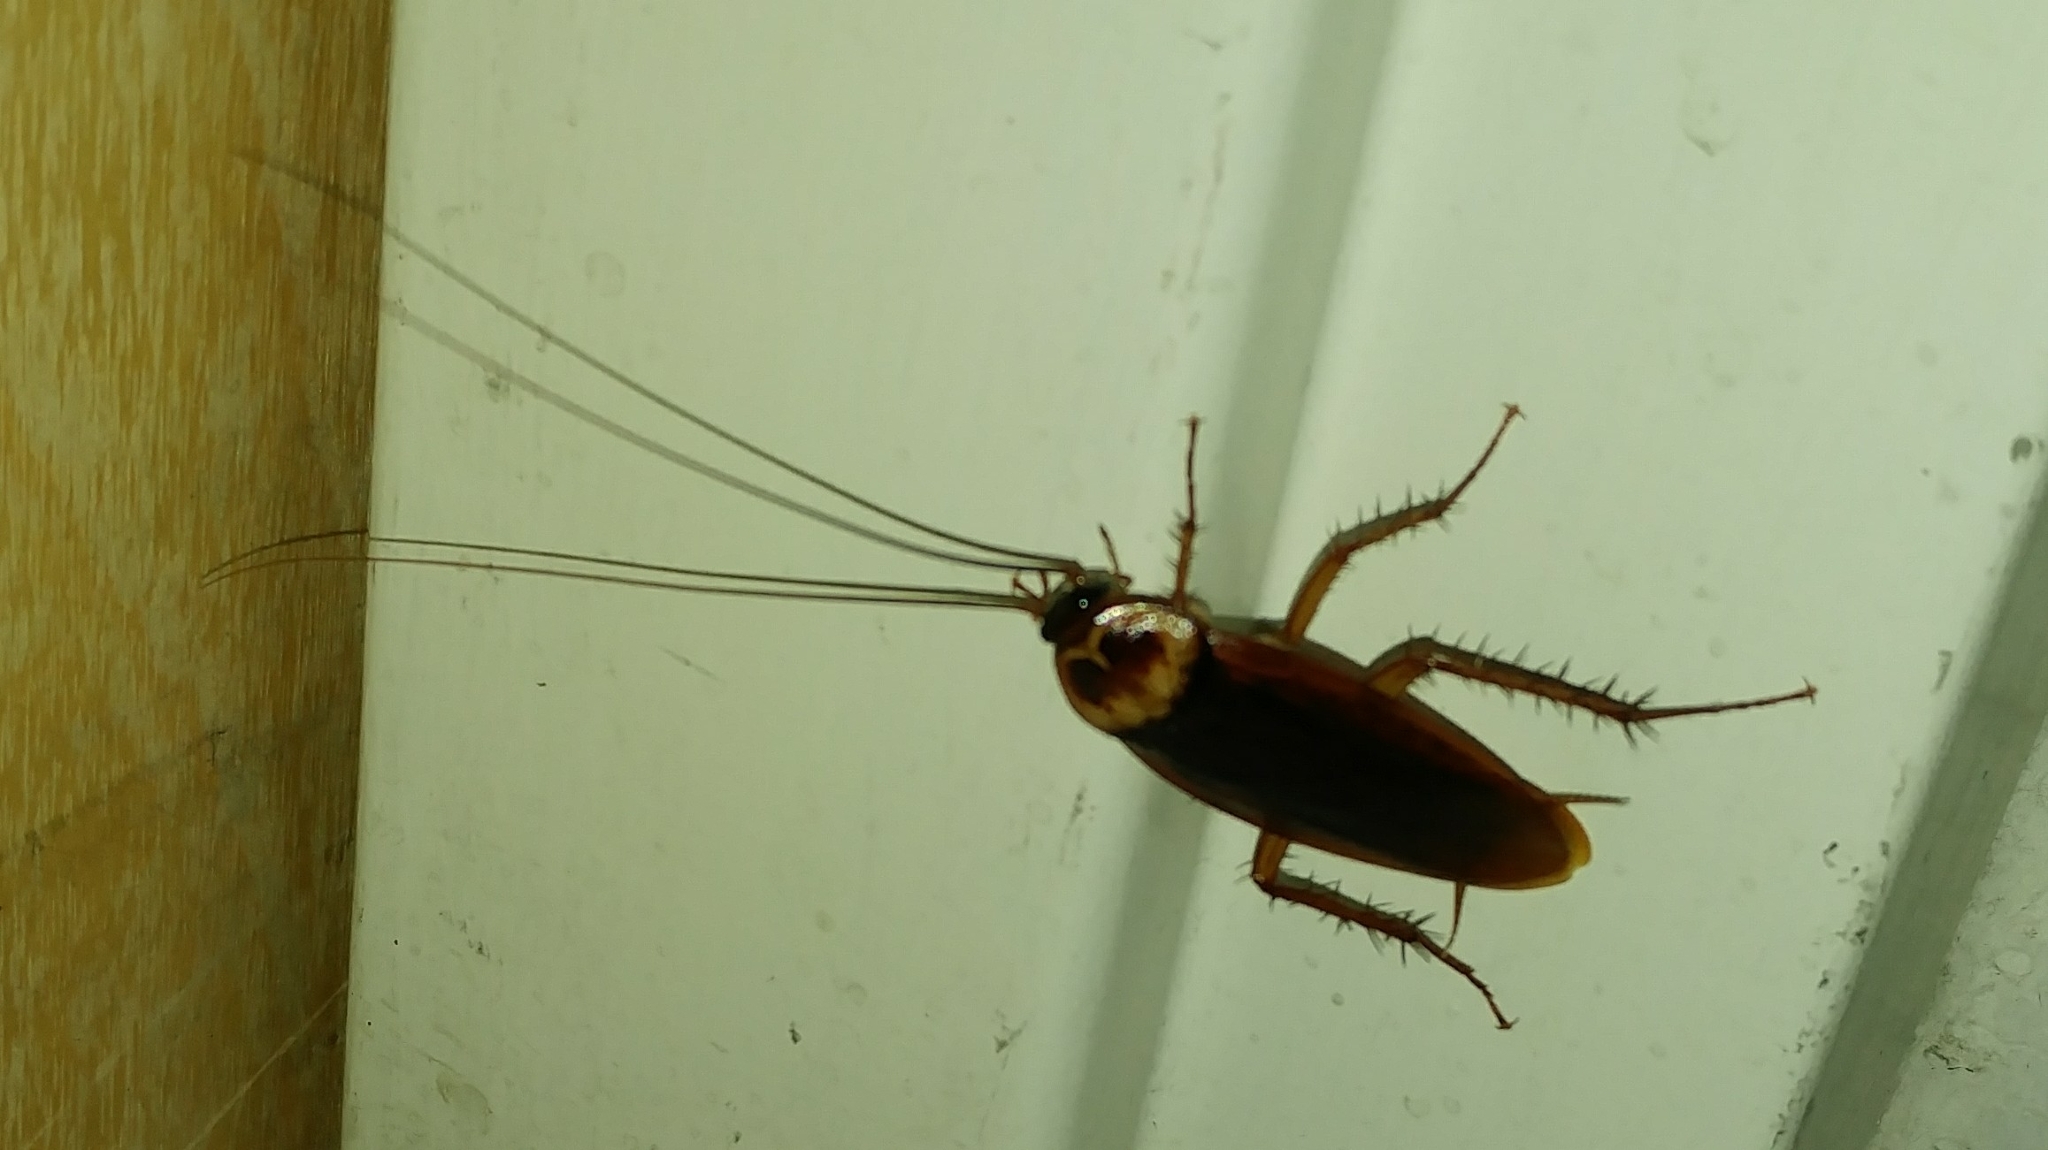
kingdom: Animalia
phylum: Arthropoda
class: Insecta
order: Blattodea
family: Blattidae
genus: Periplaneta
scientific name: Periplaneta americana
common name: American cockroach
